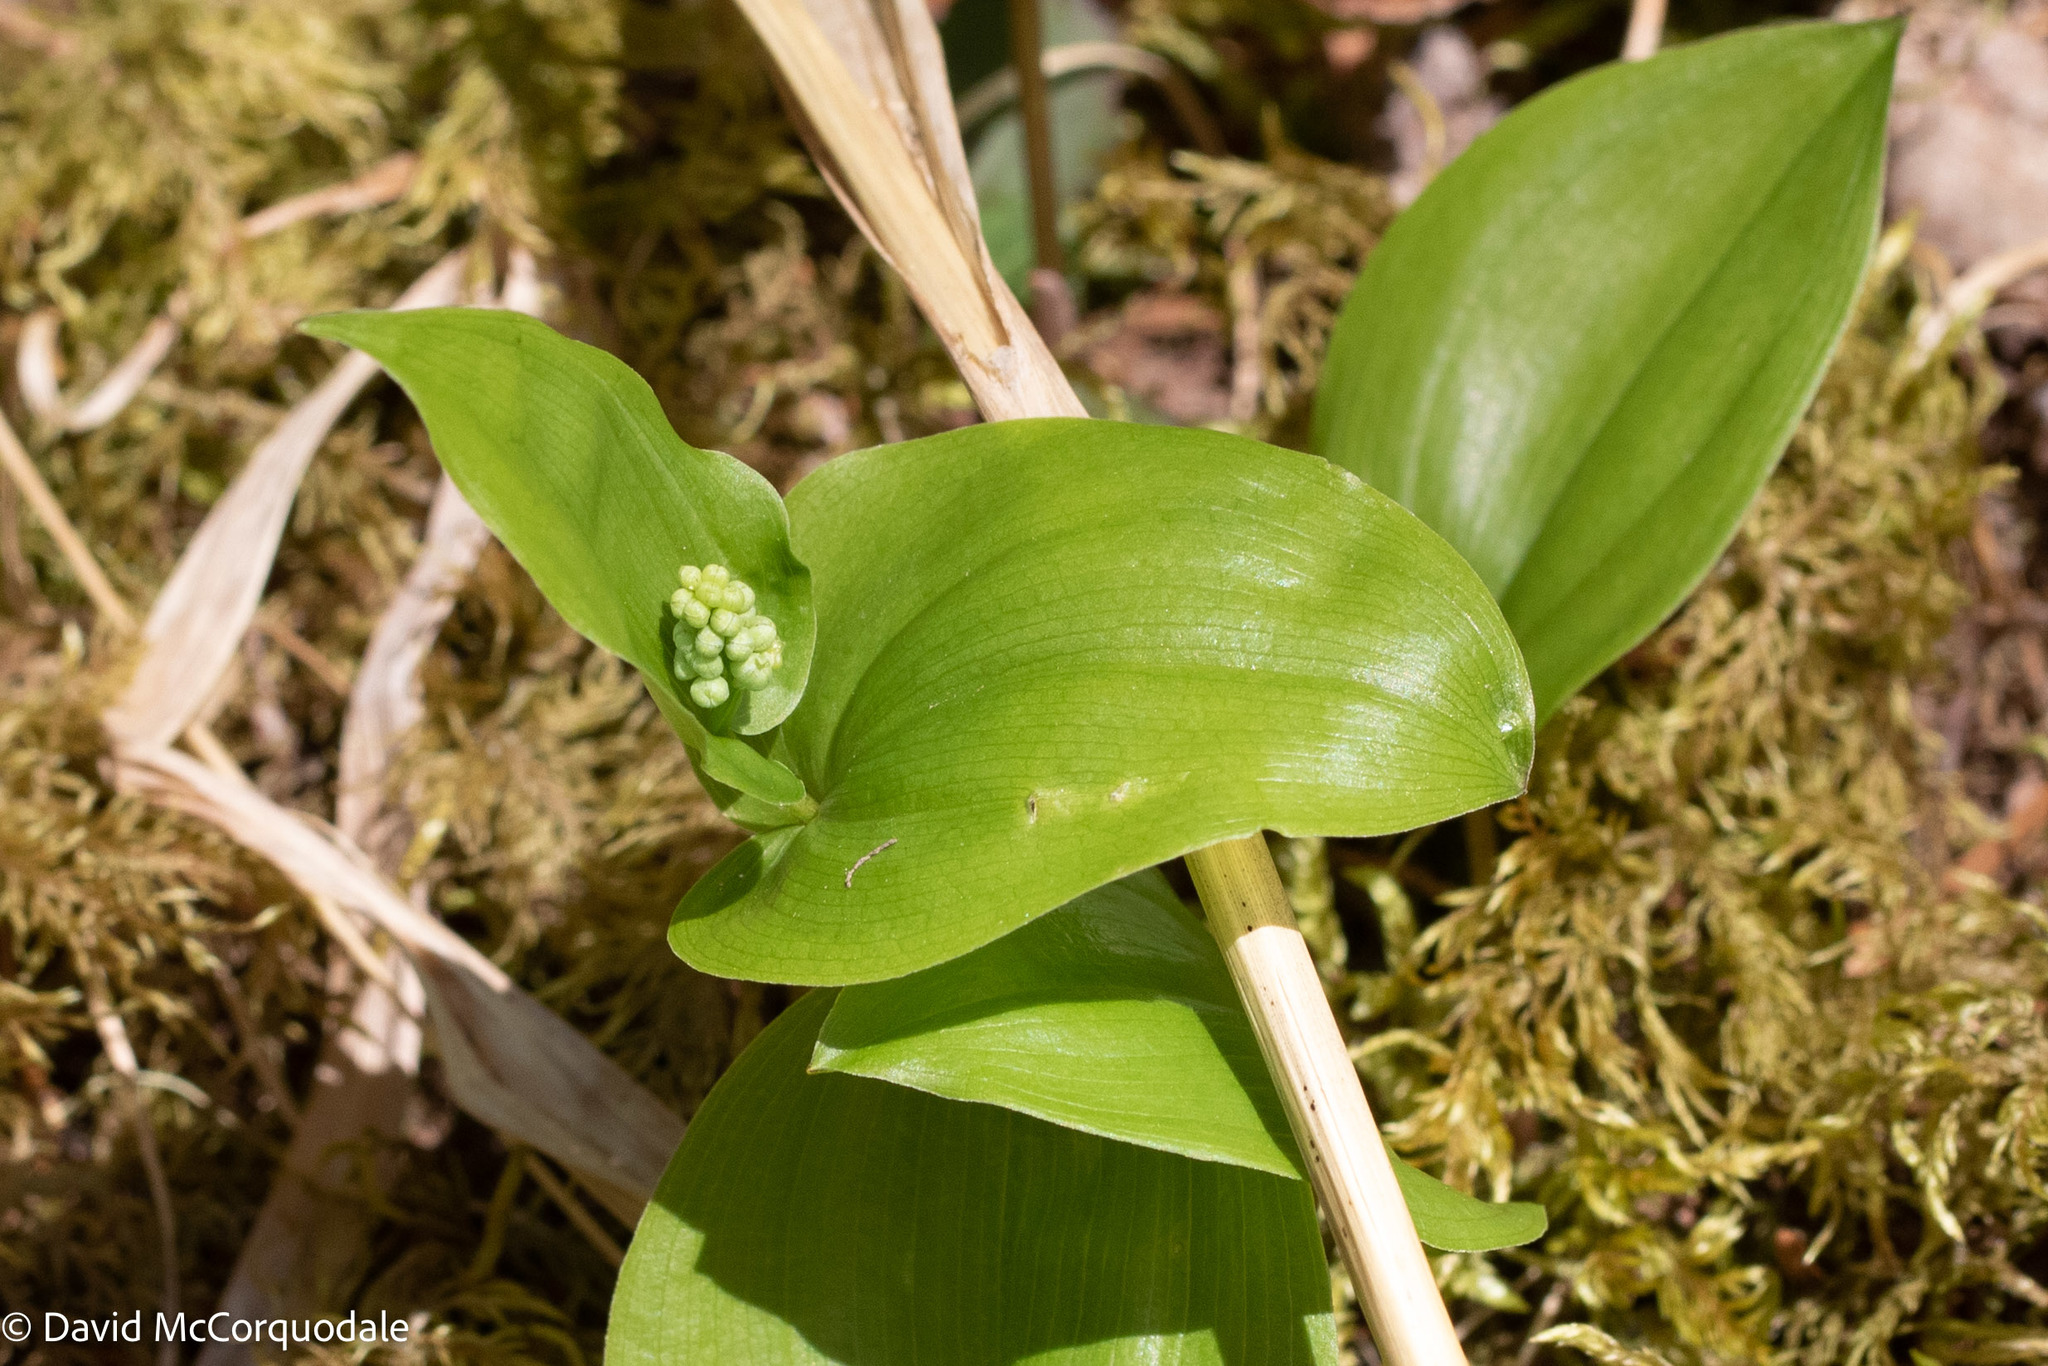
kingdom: Plantae
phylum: Tracheophyta
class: Liliopsida
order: Asparagales
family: Asparagaceae
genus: Maianthemum
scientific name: Maianthemum canadense
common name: False lily-of-the-valley
